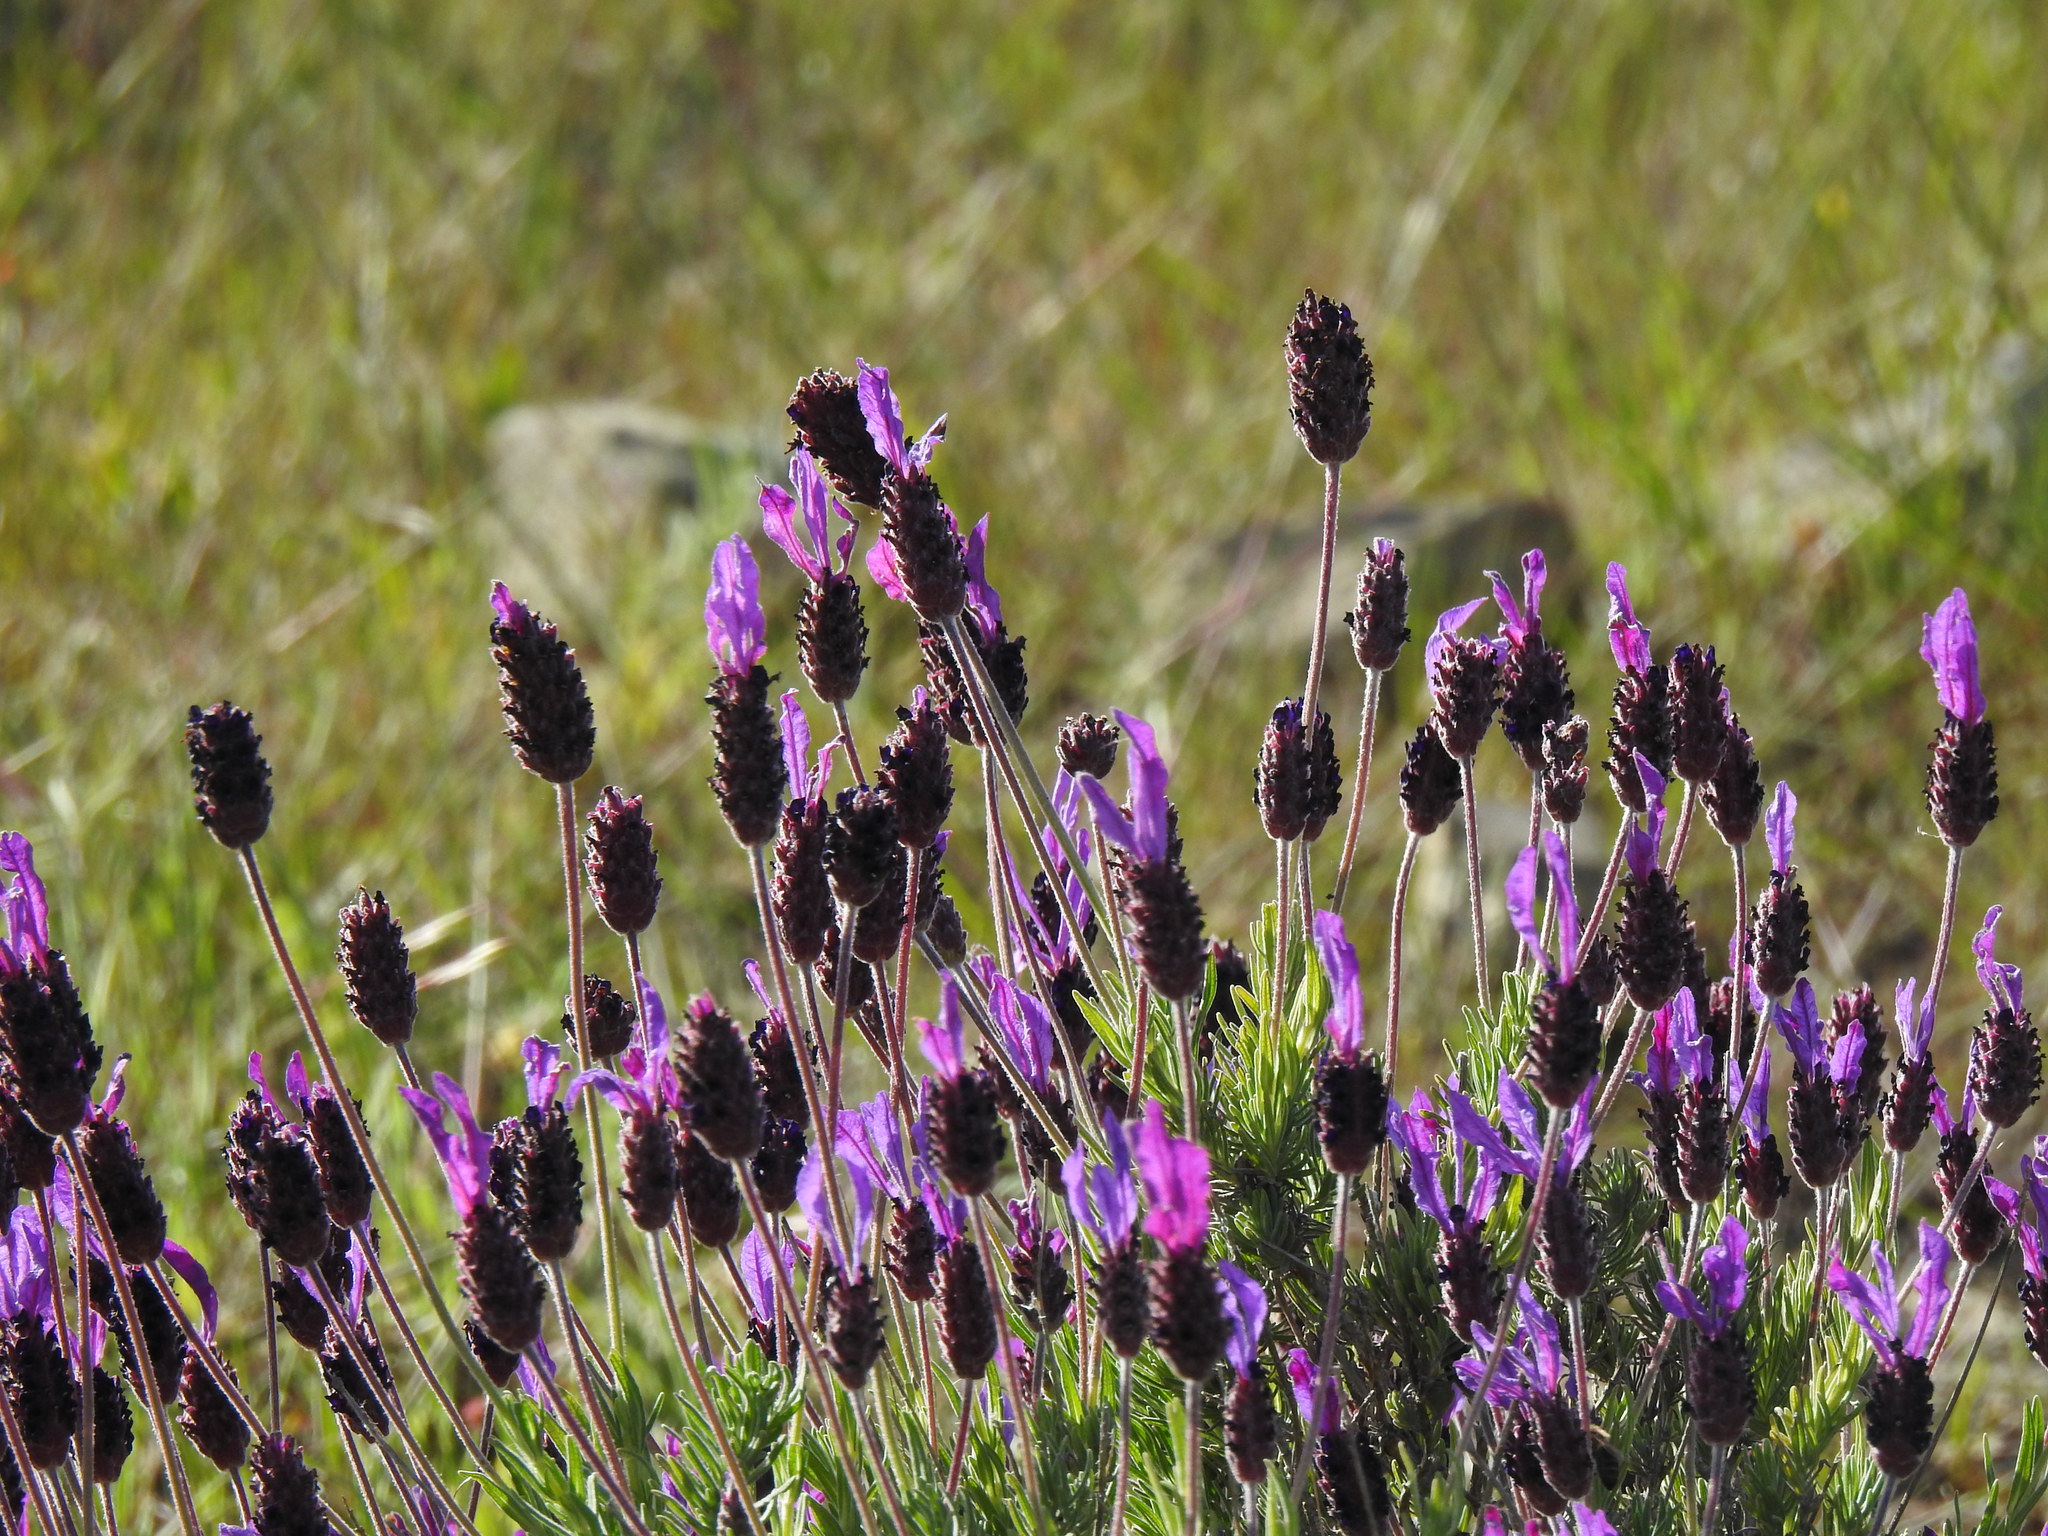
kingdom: Plantae
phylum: Tracheophyta
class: Magnoliopsida
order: Lamiales
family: Lamiaceae
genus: Lavandula
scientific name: Lavandula pedunculata
